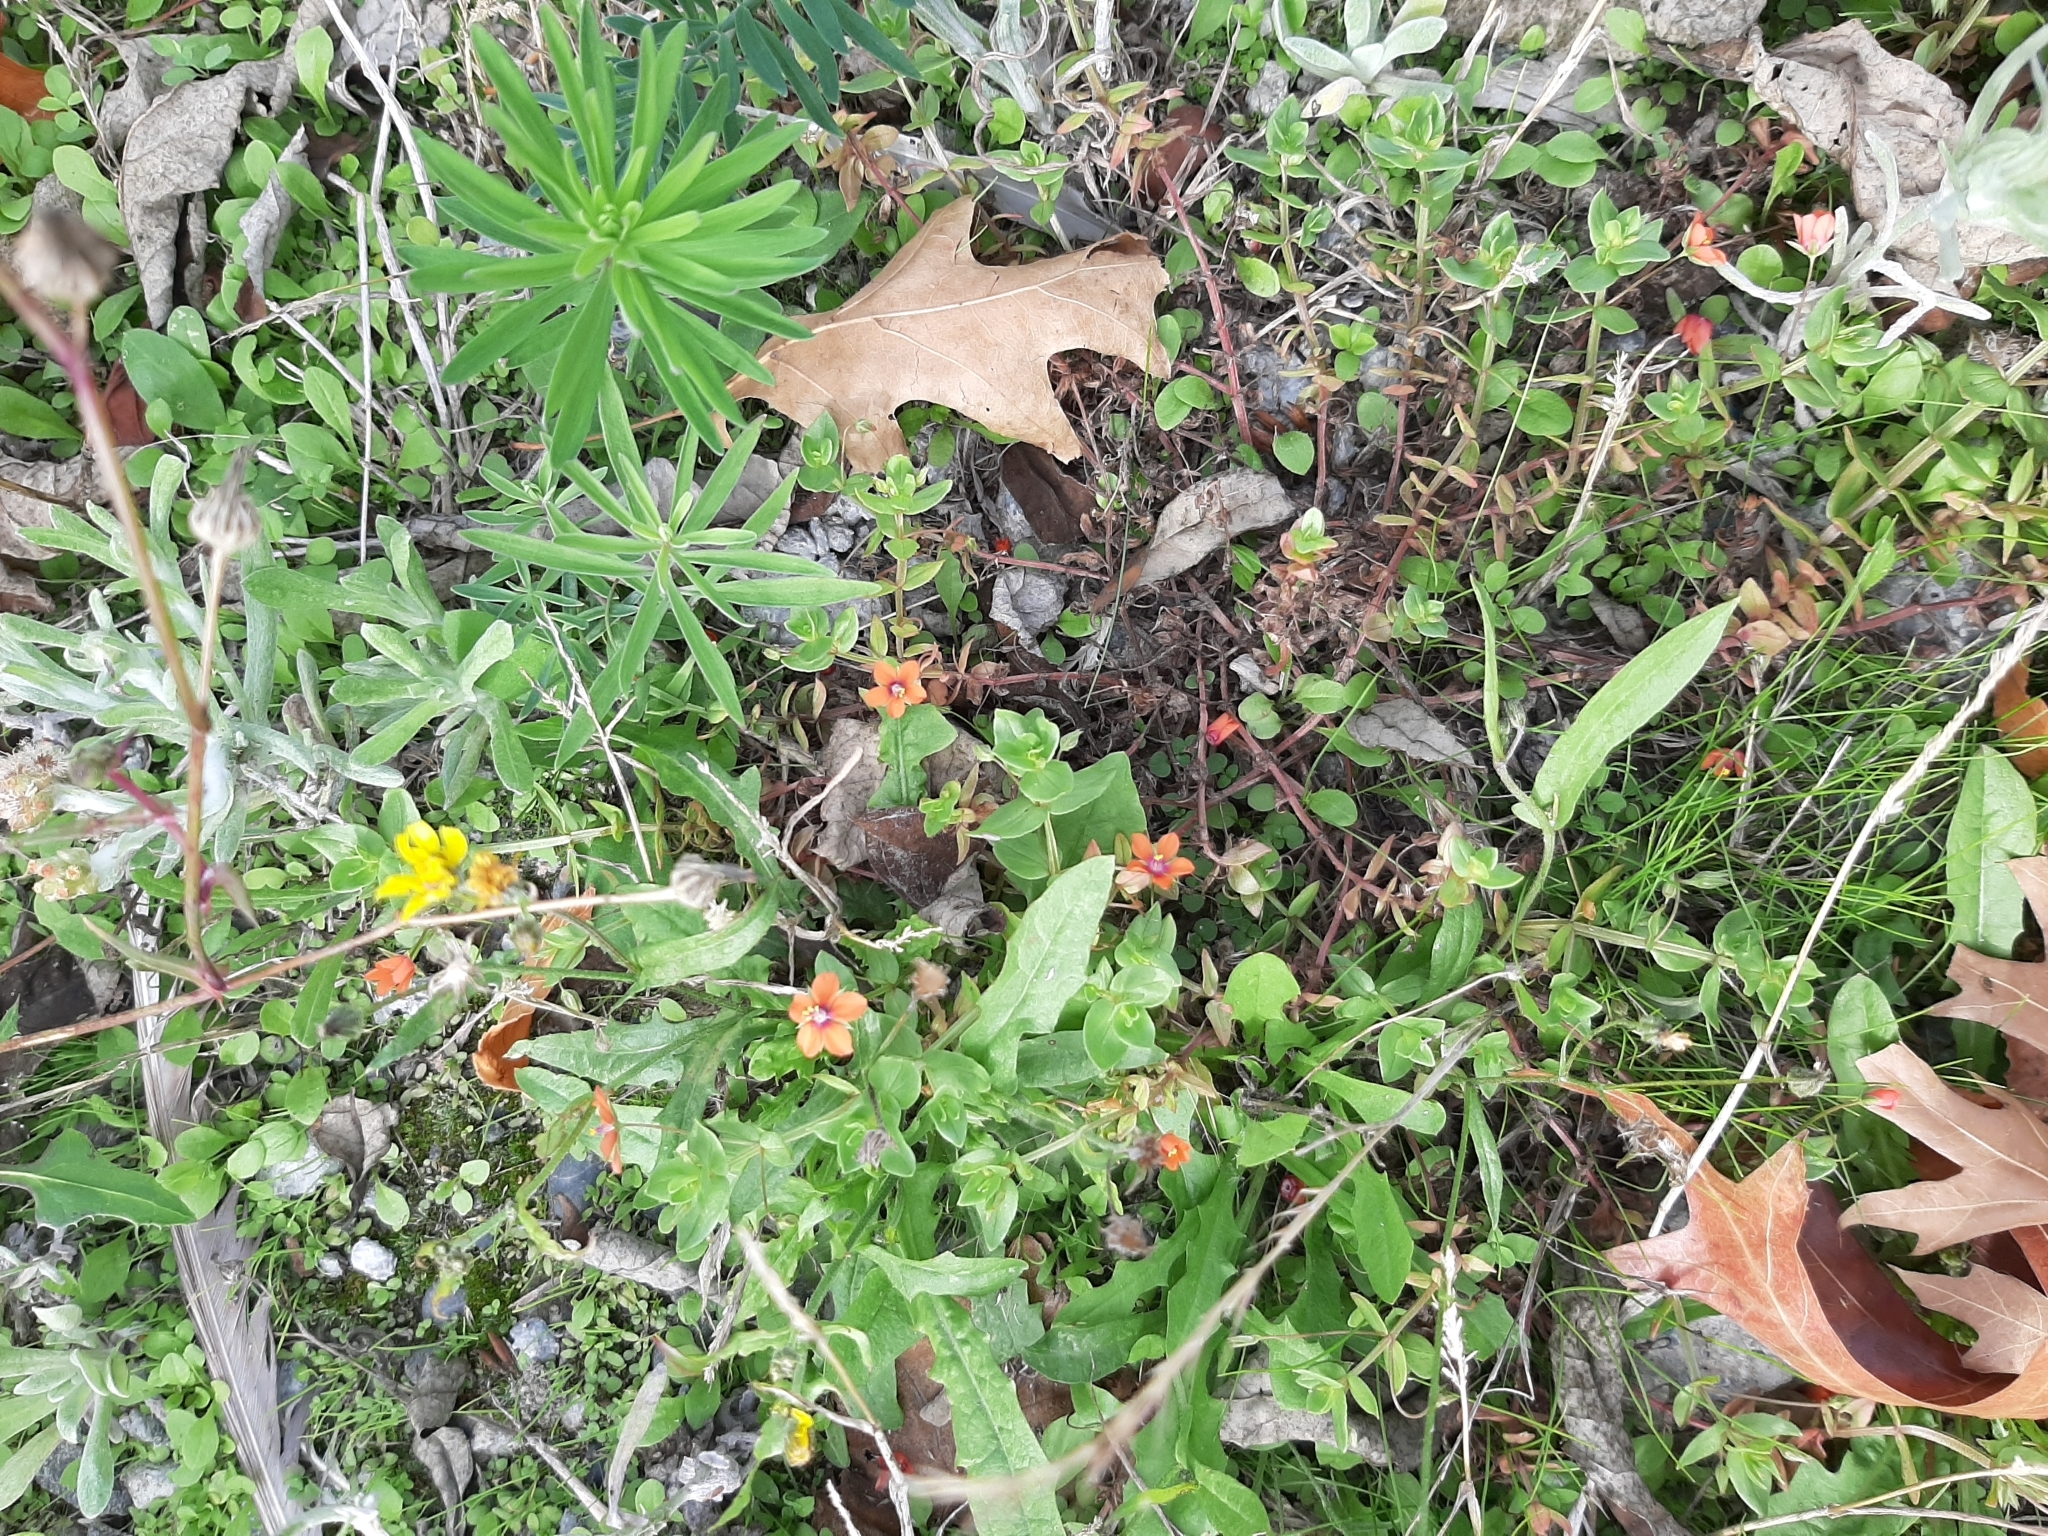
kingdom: Plantae
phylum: Tracheophyta
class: Magnoliopsida
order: Ericales
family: Primulaceae
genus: Lysimachia
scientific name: Lysimachia arvensis
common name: Scarlet pimpernel
